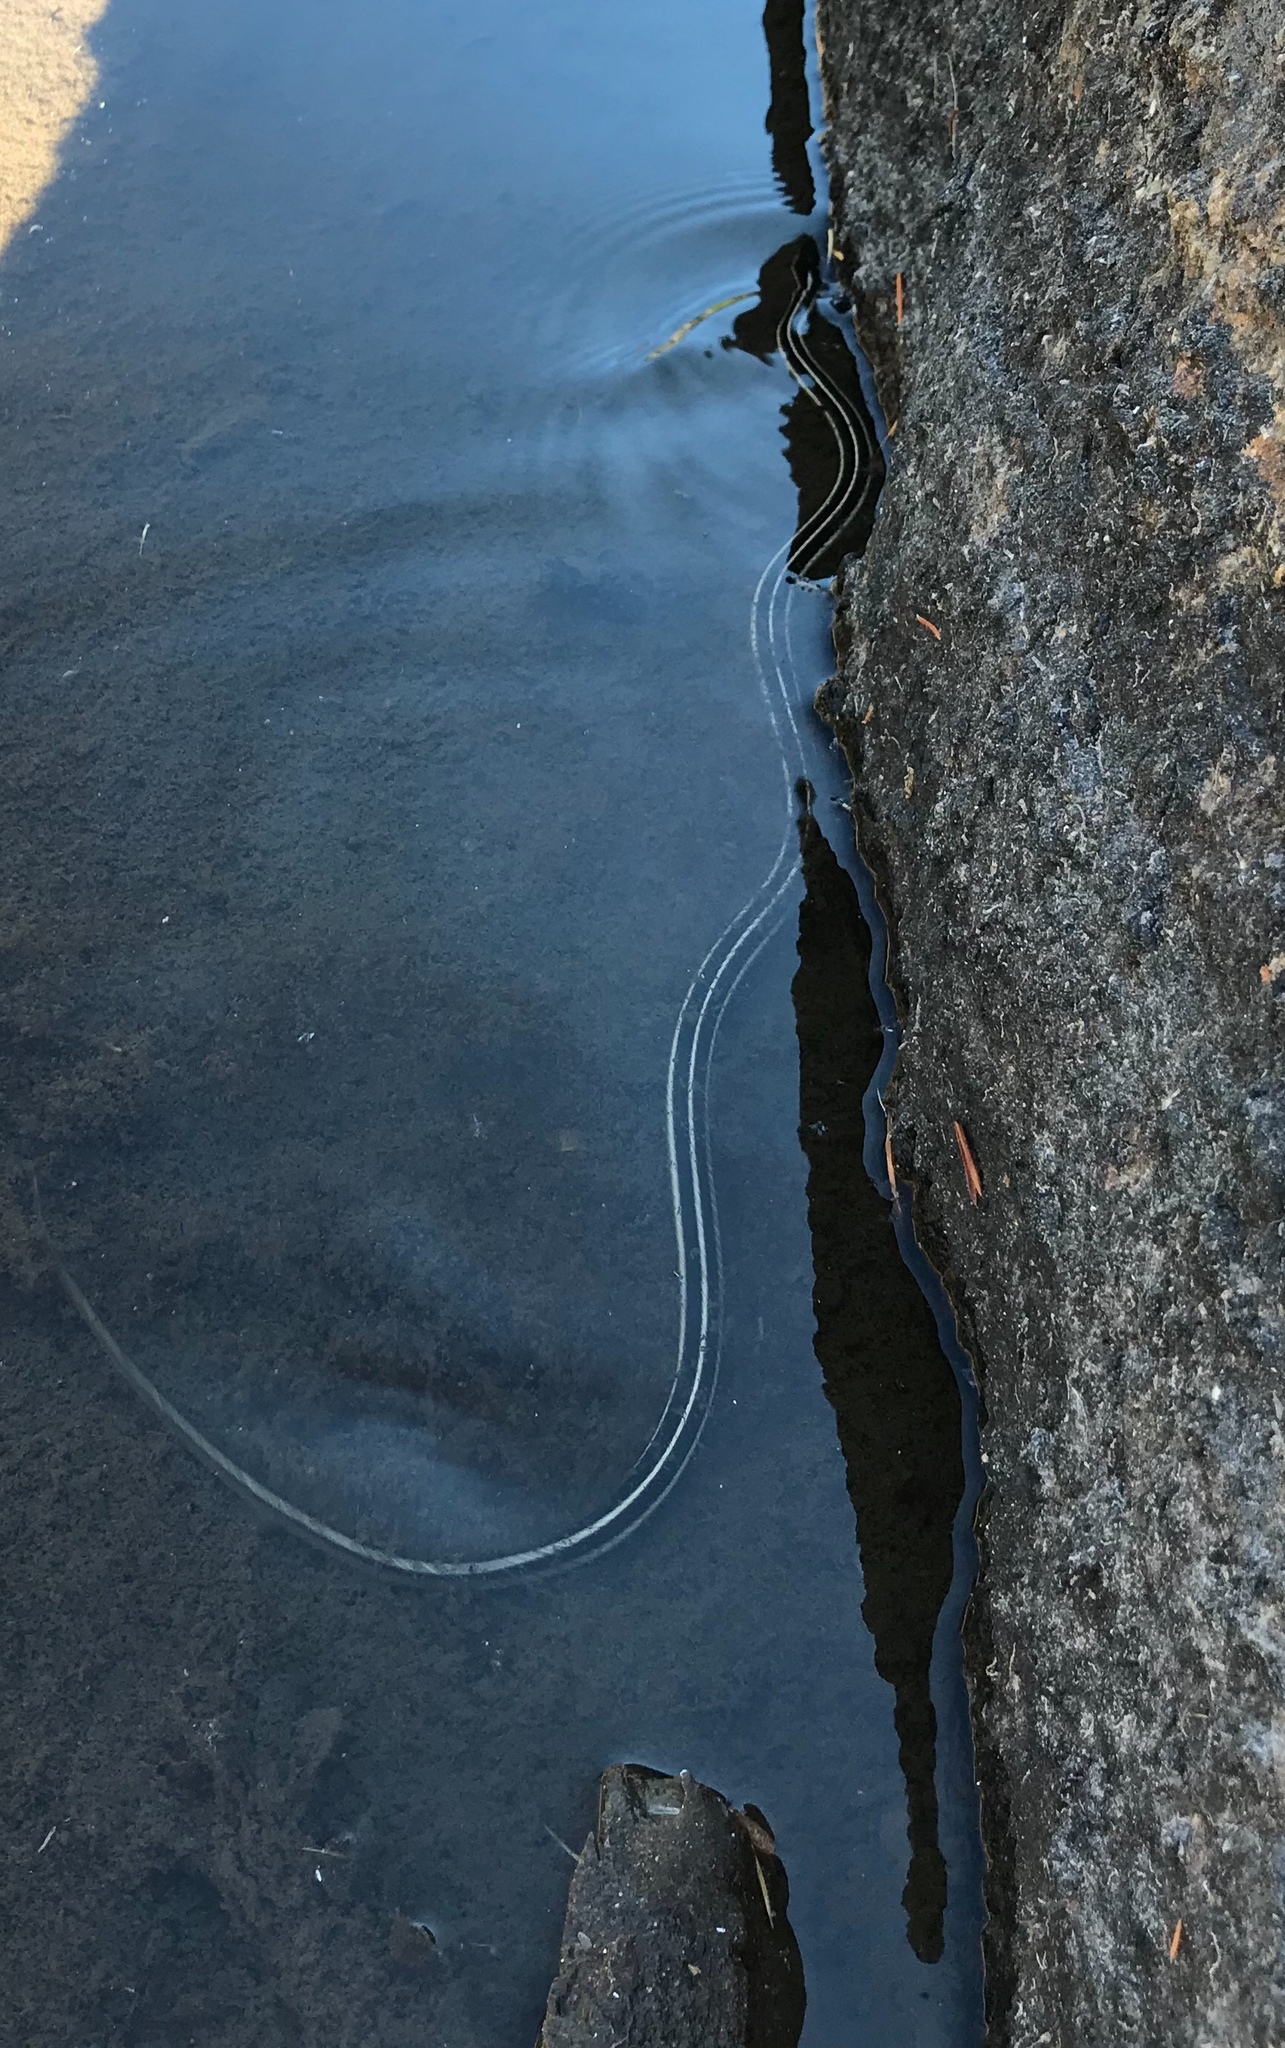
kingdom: Animalia
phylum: Chordata
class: Squamata
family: Colubridae
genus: Thamnophis
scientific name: Thamnophis elegans
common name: Western terrestrial garter snake
